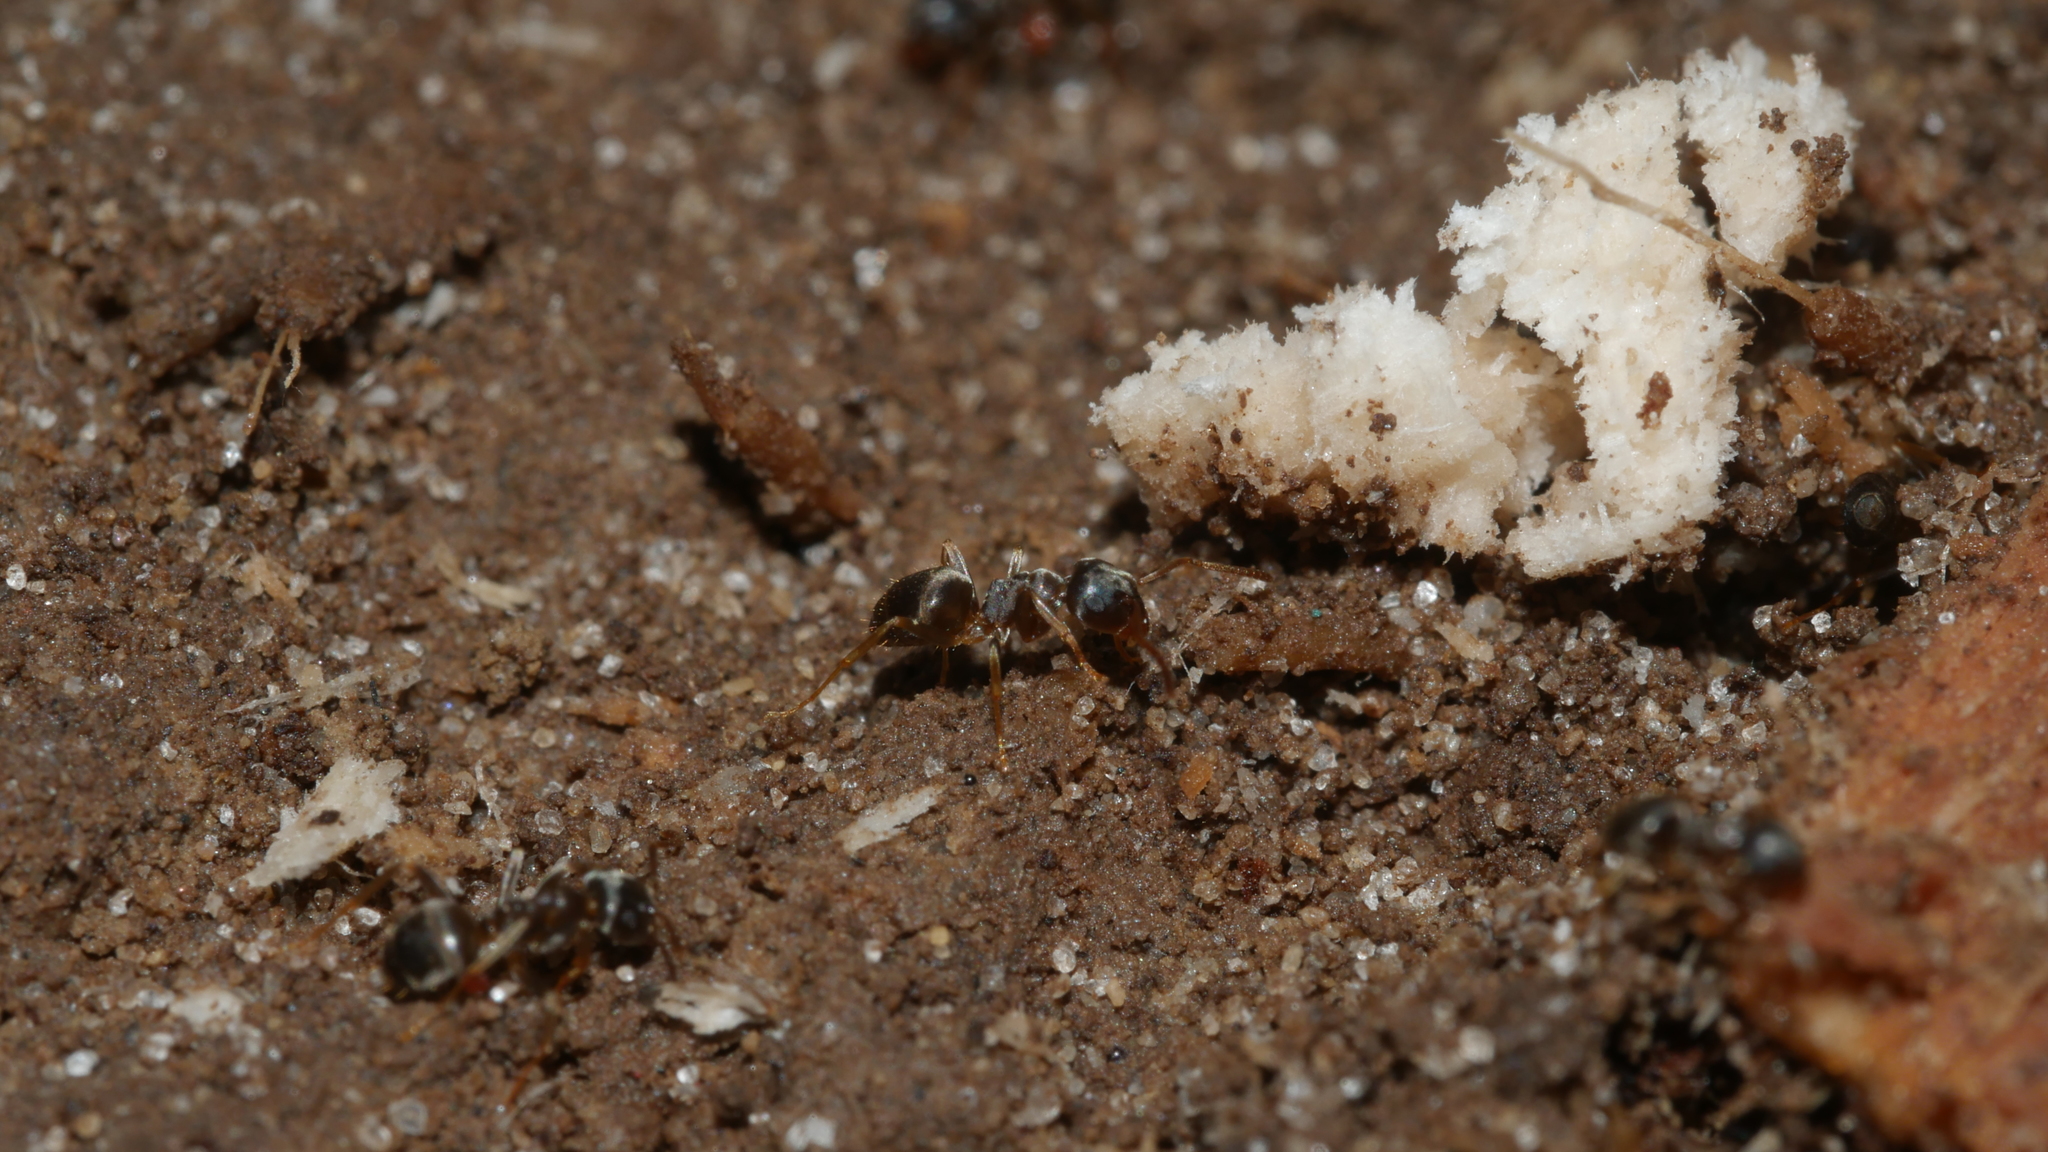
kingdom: Animalia
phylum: Arthropoda
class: Insecta
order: Hymenoptera
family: Formicidae
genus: Lasius
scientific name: Lasius americanus
